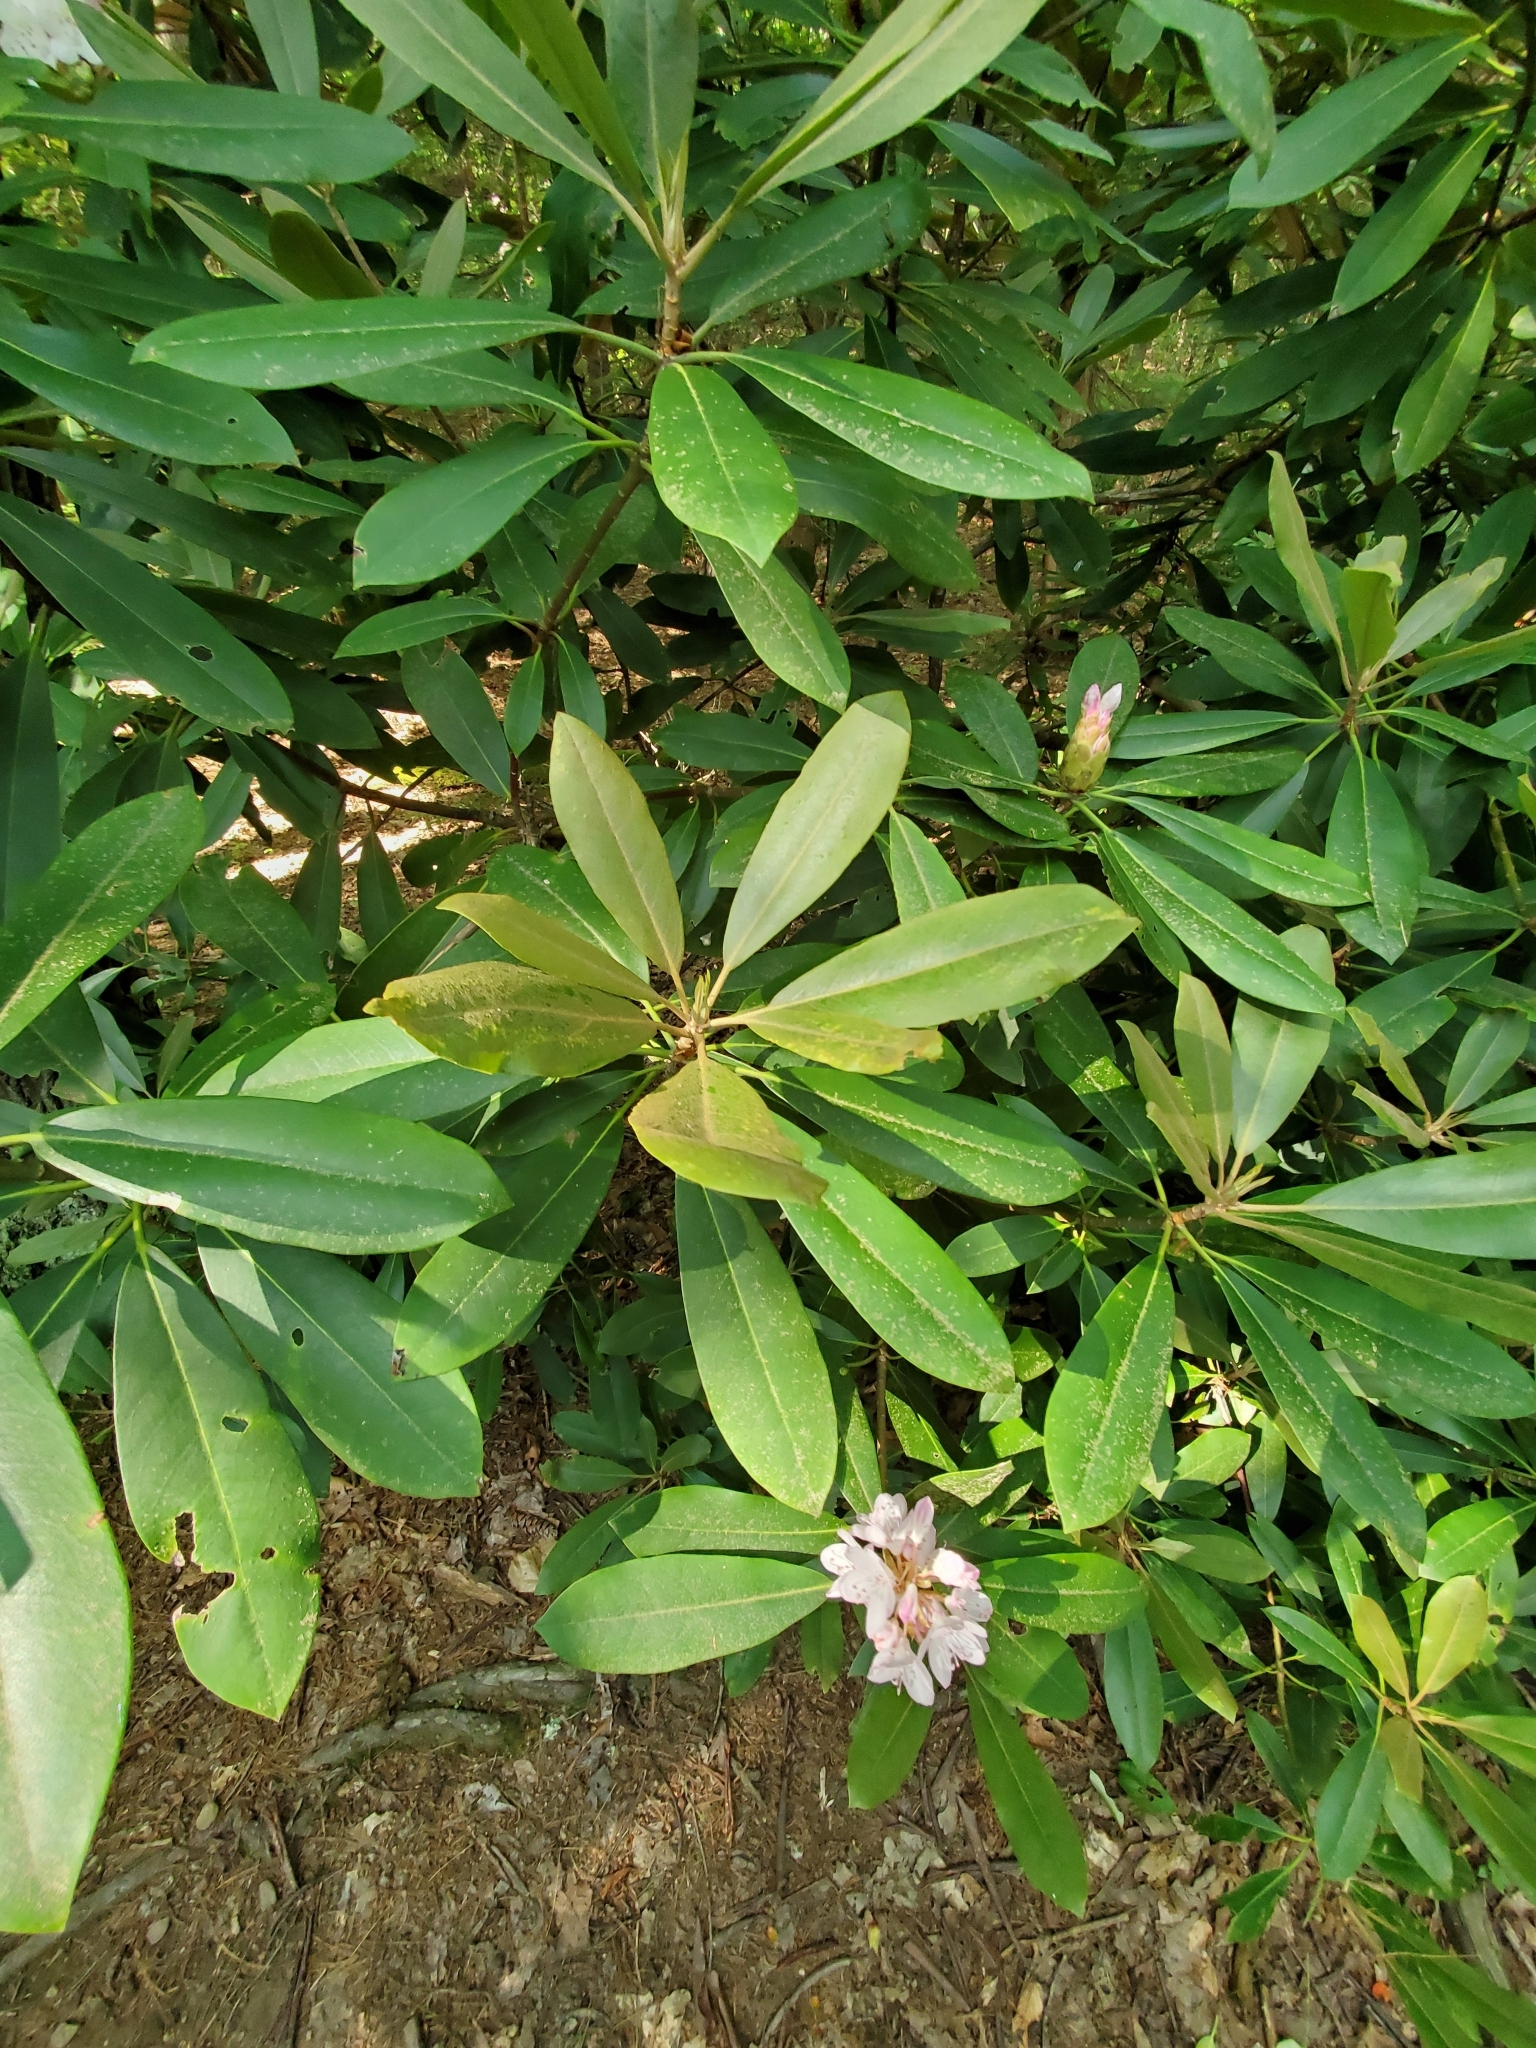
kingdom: Plantae
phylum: Tracheophyta
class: Magnoliopsida
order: Ericales
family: Ericaceae
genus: Rhododendron
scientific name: Rhododendron maximum
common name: Great rhododendron
